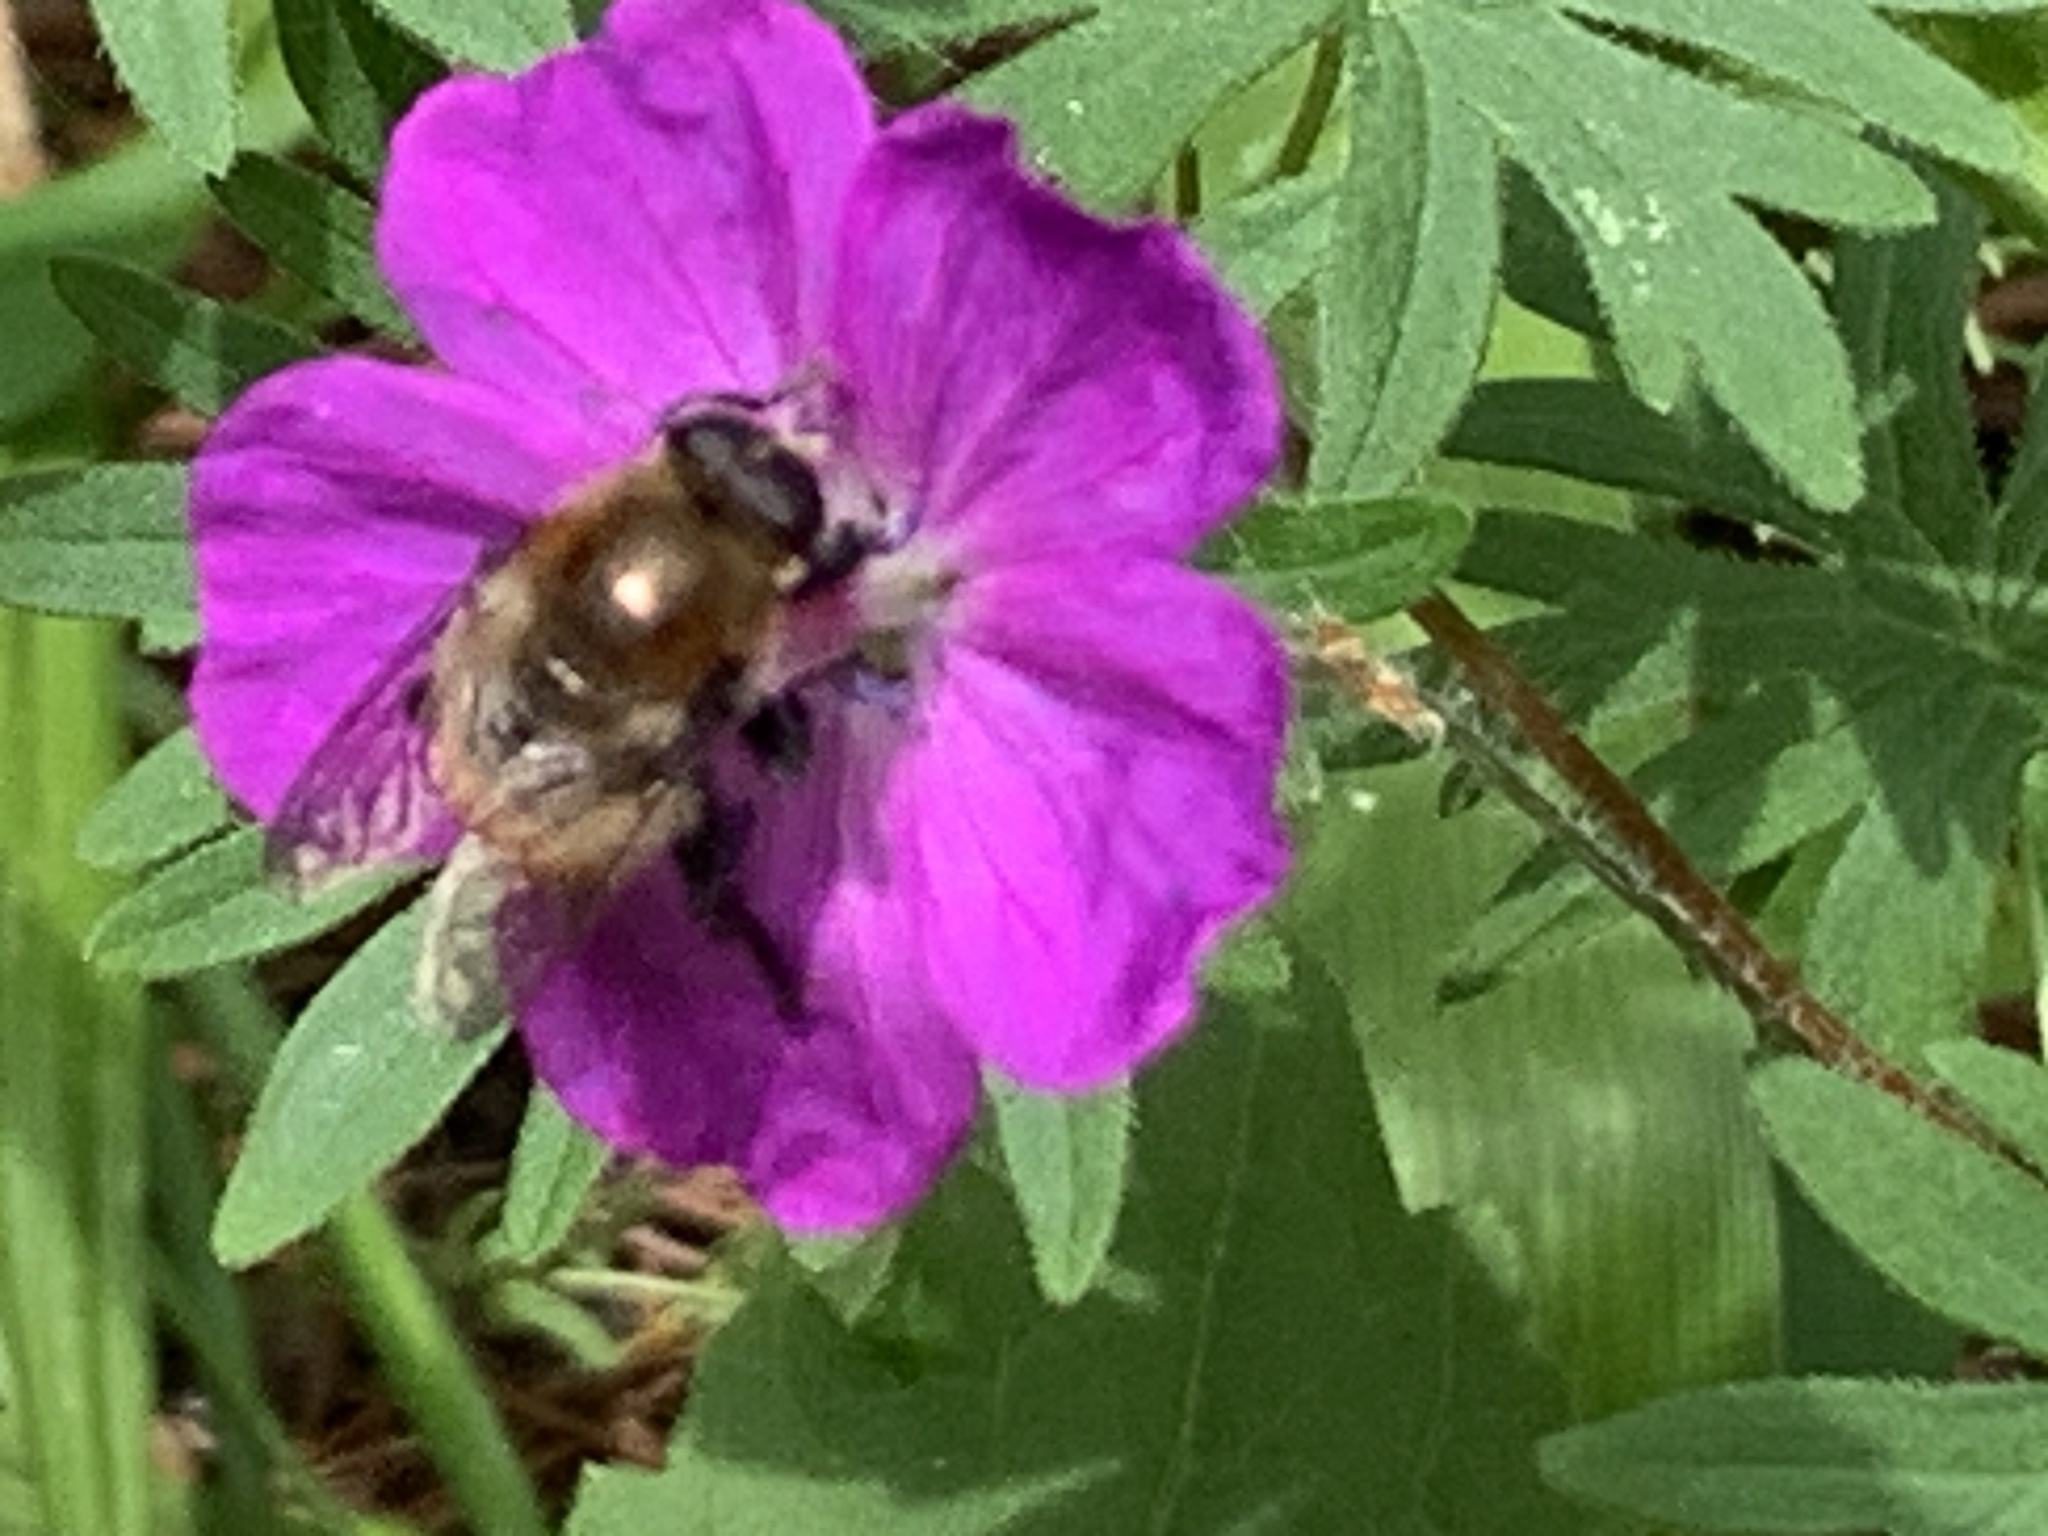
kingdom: Animalia
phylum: Arthropoda
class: Insecta
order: Diptera
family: Syrphidae
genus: Merodon
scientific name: Merodon equestris
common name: Greater bulb-fly
